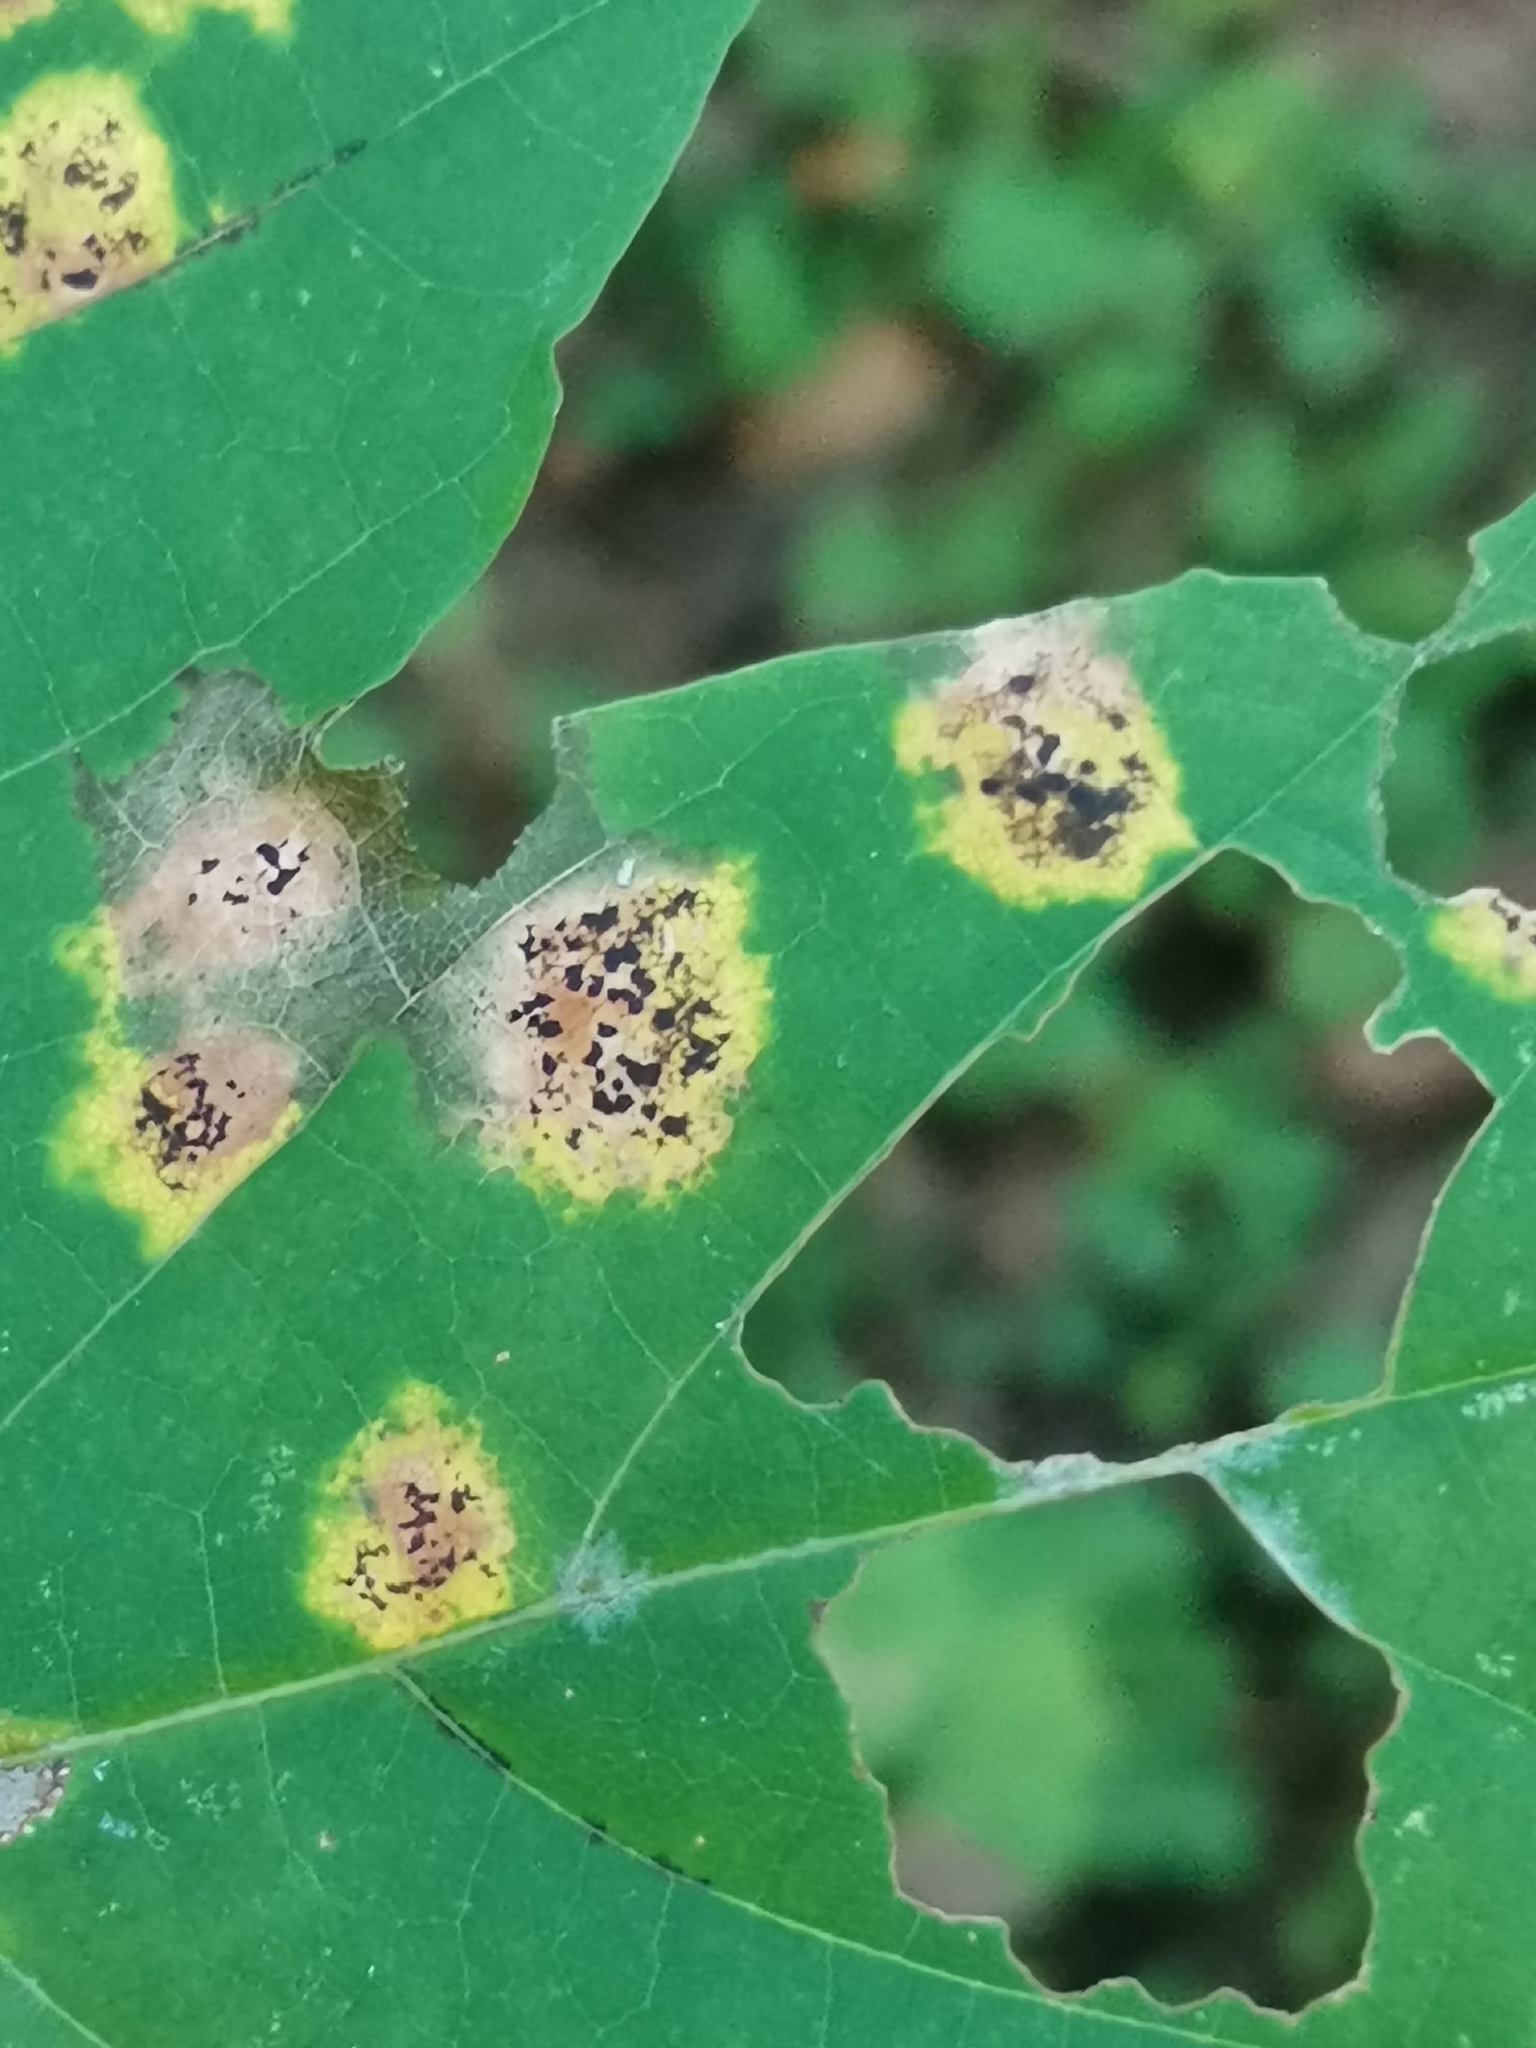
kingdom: Fungi
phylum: Ascomycota
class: Leotiomycetes
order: Rhytismatales
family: Rhytismataceae
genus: Rhytisma
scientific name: Rhytisma acerinum
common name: European tar spot
